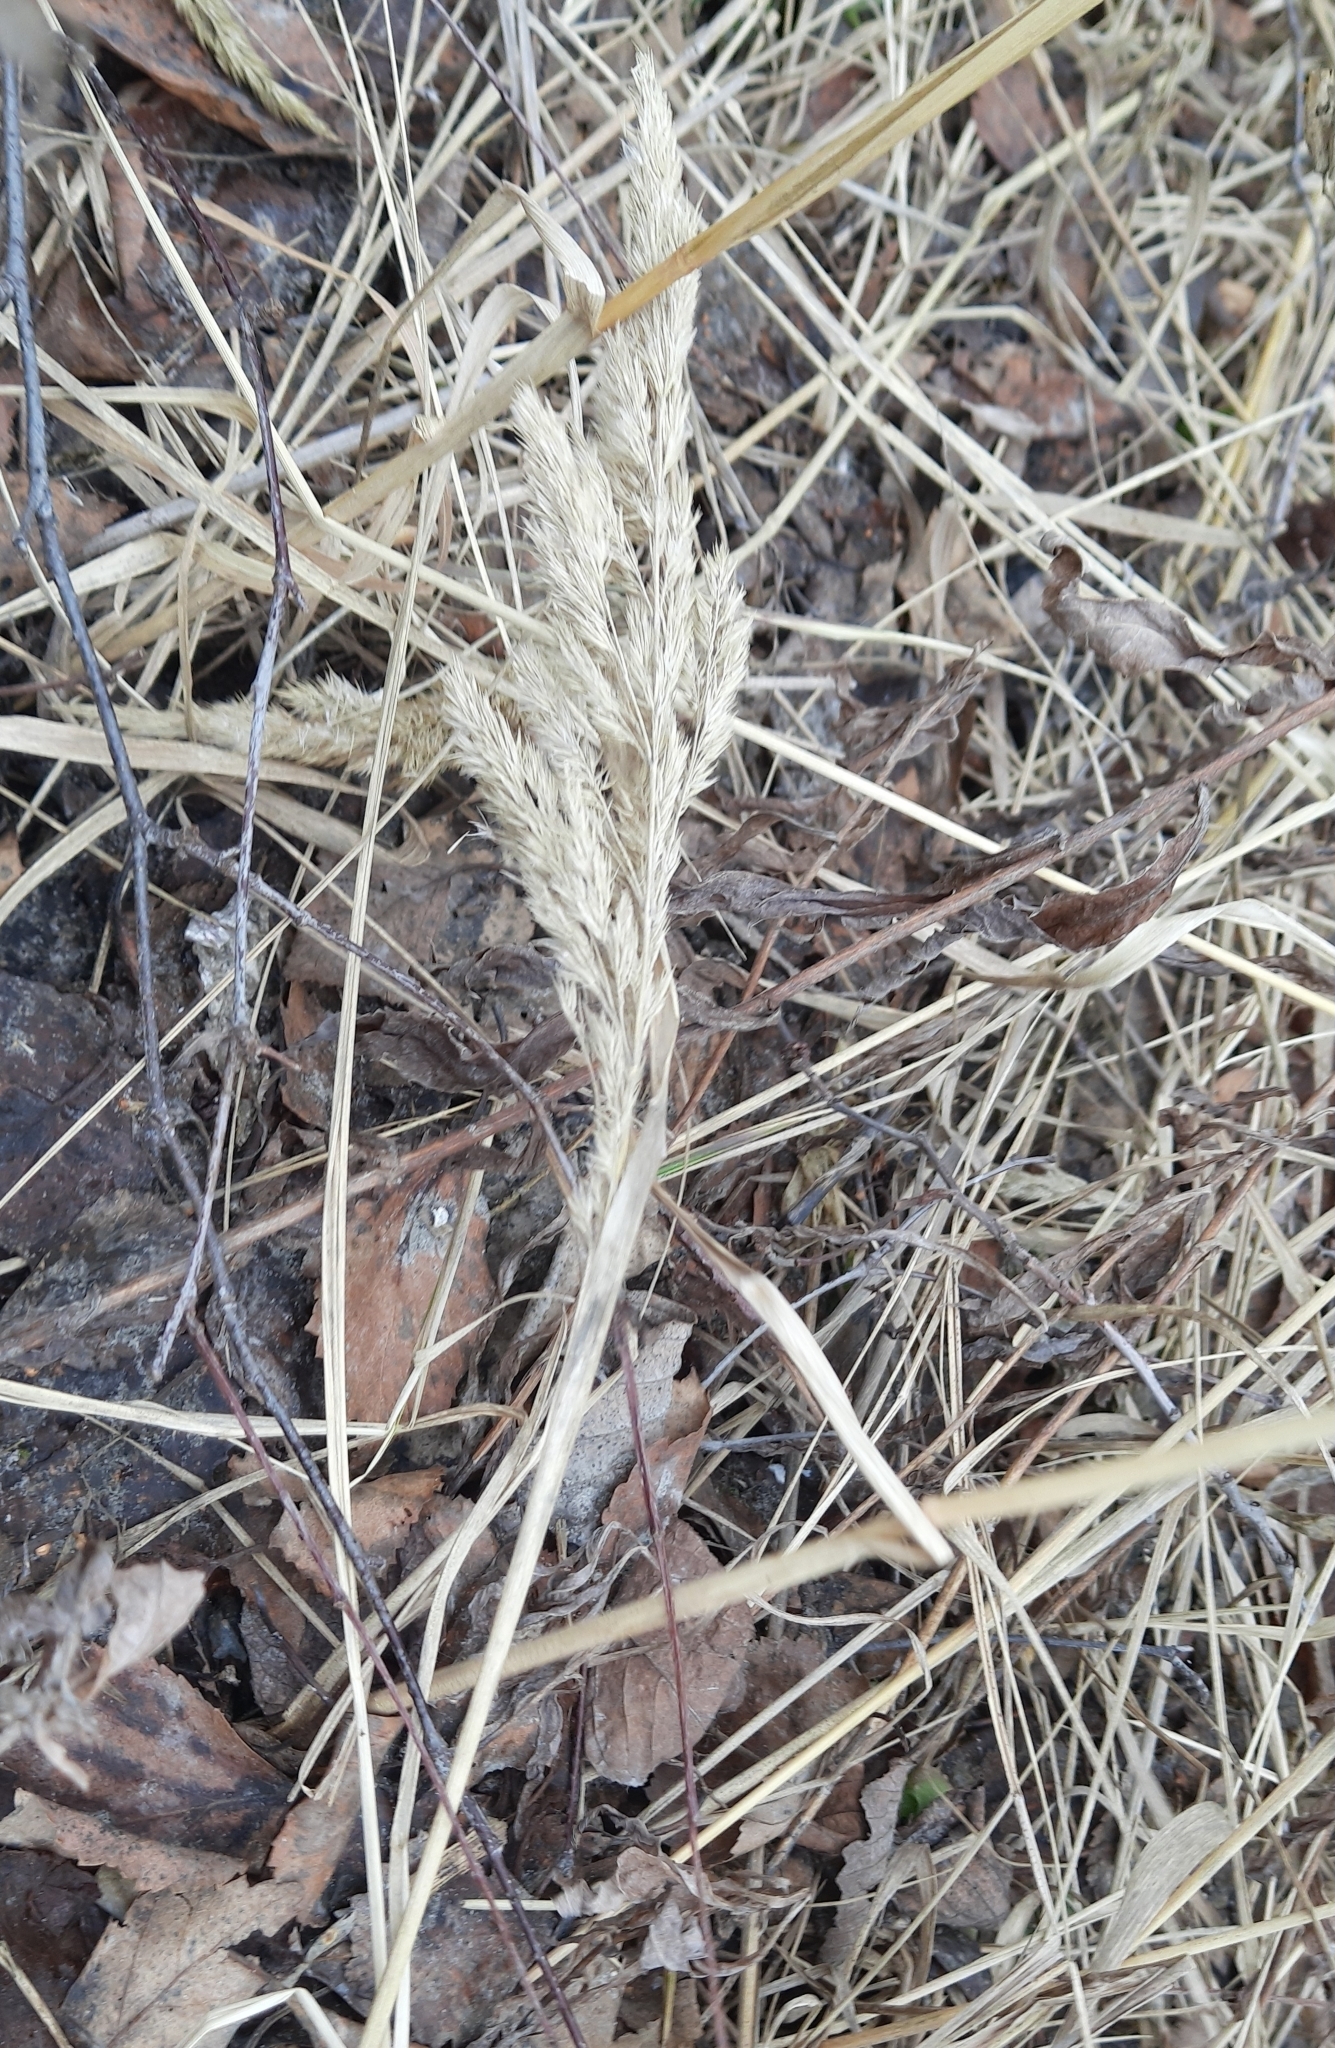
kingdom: Plantae
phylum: Tracheophyta
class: Liliopsida
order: Poales
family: Poaceae
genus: Calamagrostis
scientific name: Calamagrostis epigejos
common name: Wood small-reed
